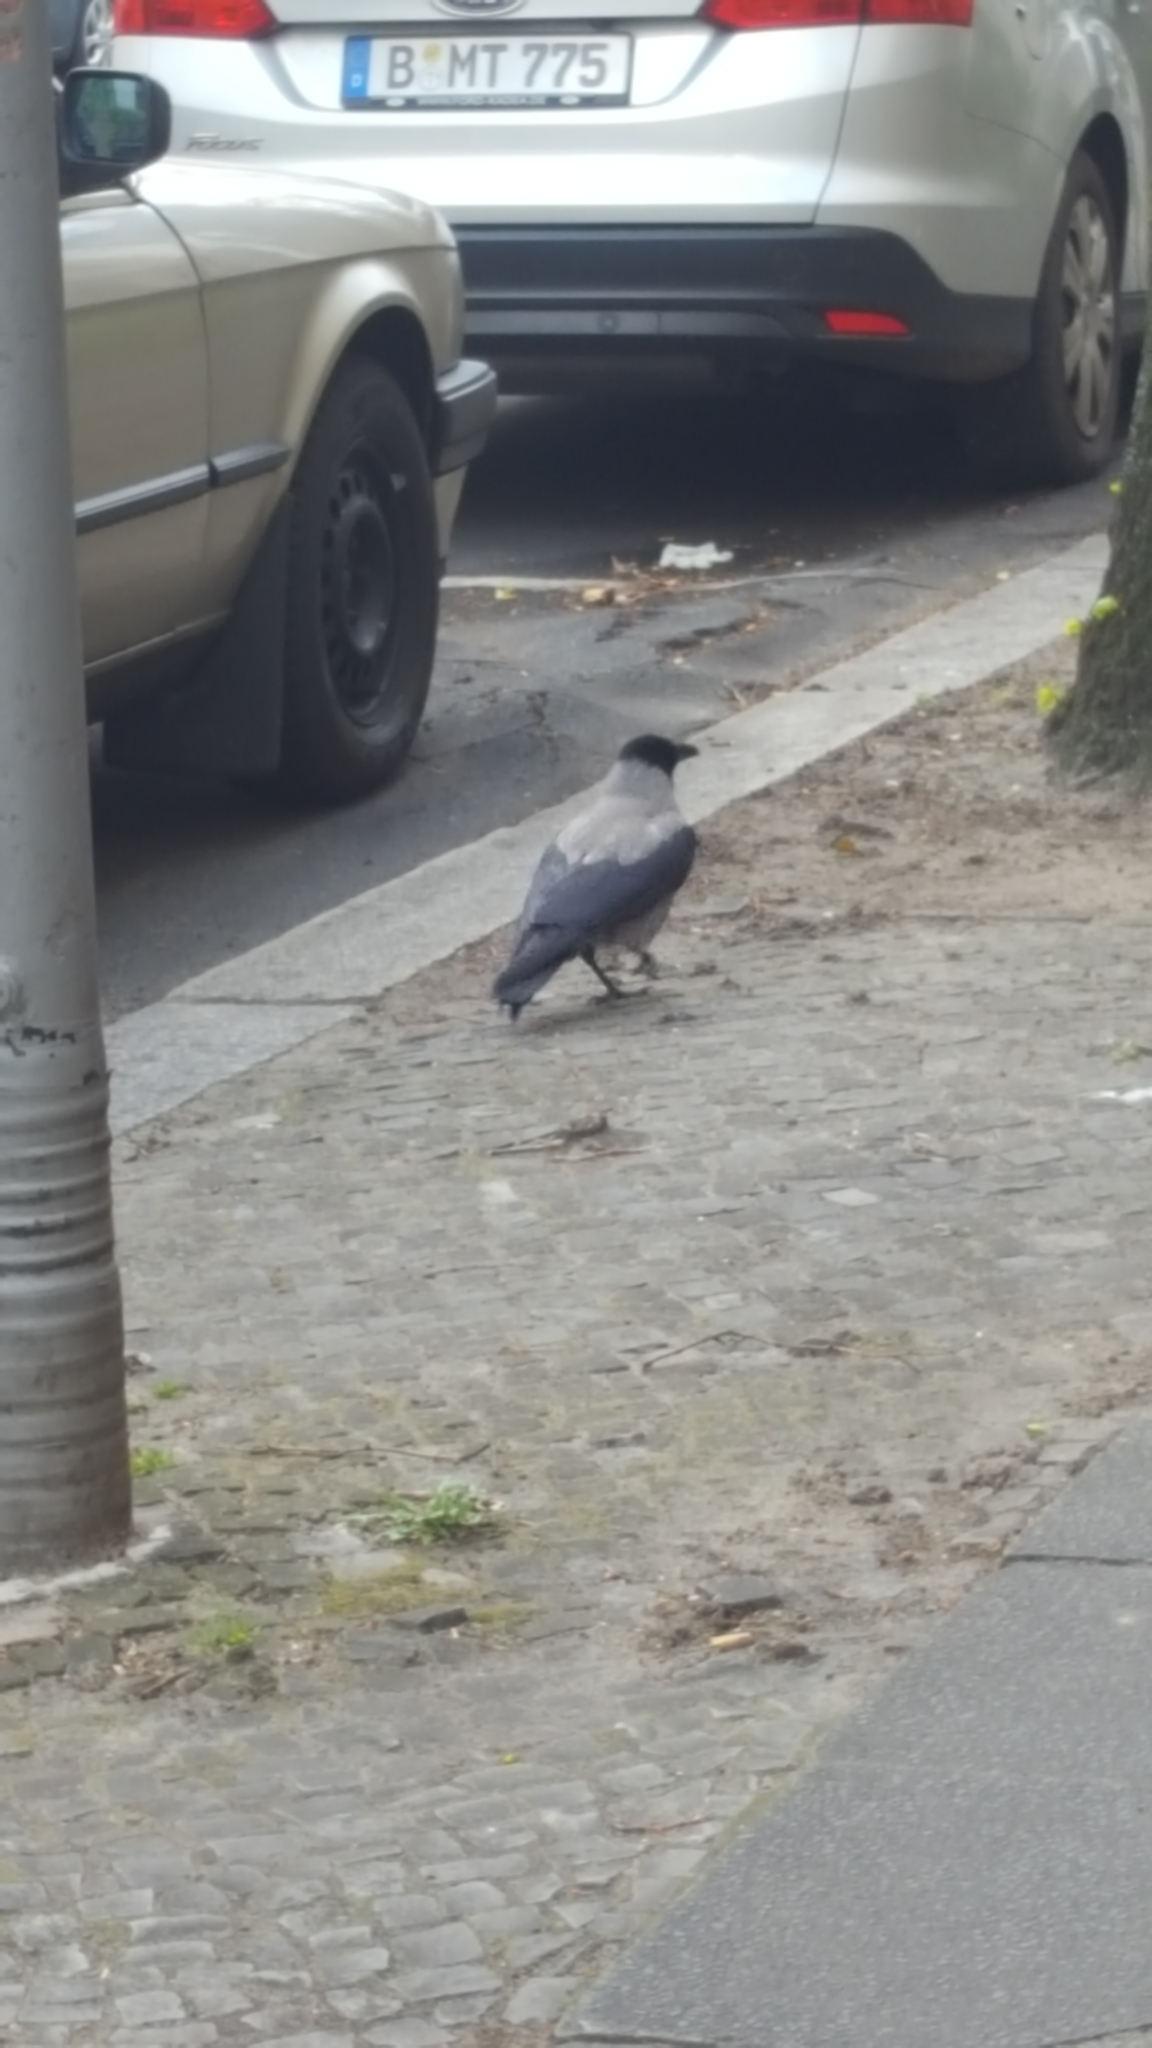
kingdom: Animalia
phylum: Chordata
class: Aves
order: Passeriformes
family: Corvidae
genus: Corvus
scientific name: Corvus cornix
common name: Hooded crow
